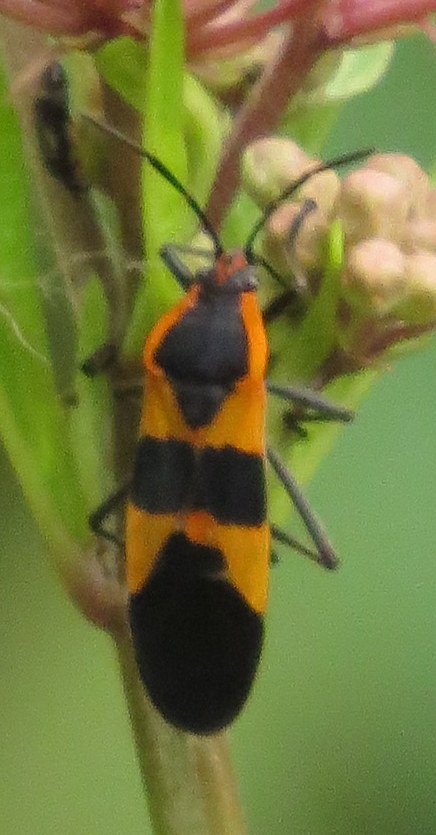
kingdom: Animalia
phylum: Arthropoda
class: Insecta
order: Hemiptera
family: Lygaeidae
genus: Oncopeltus
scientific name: Oncopeltus fasciatus
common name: Large milkweed bug
